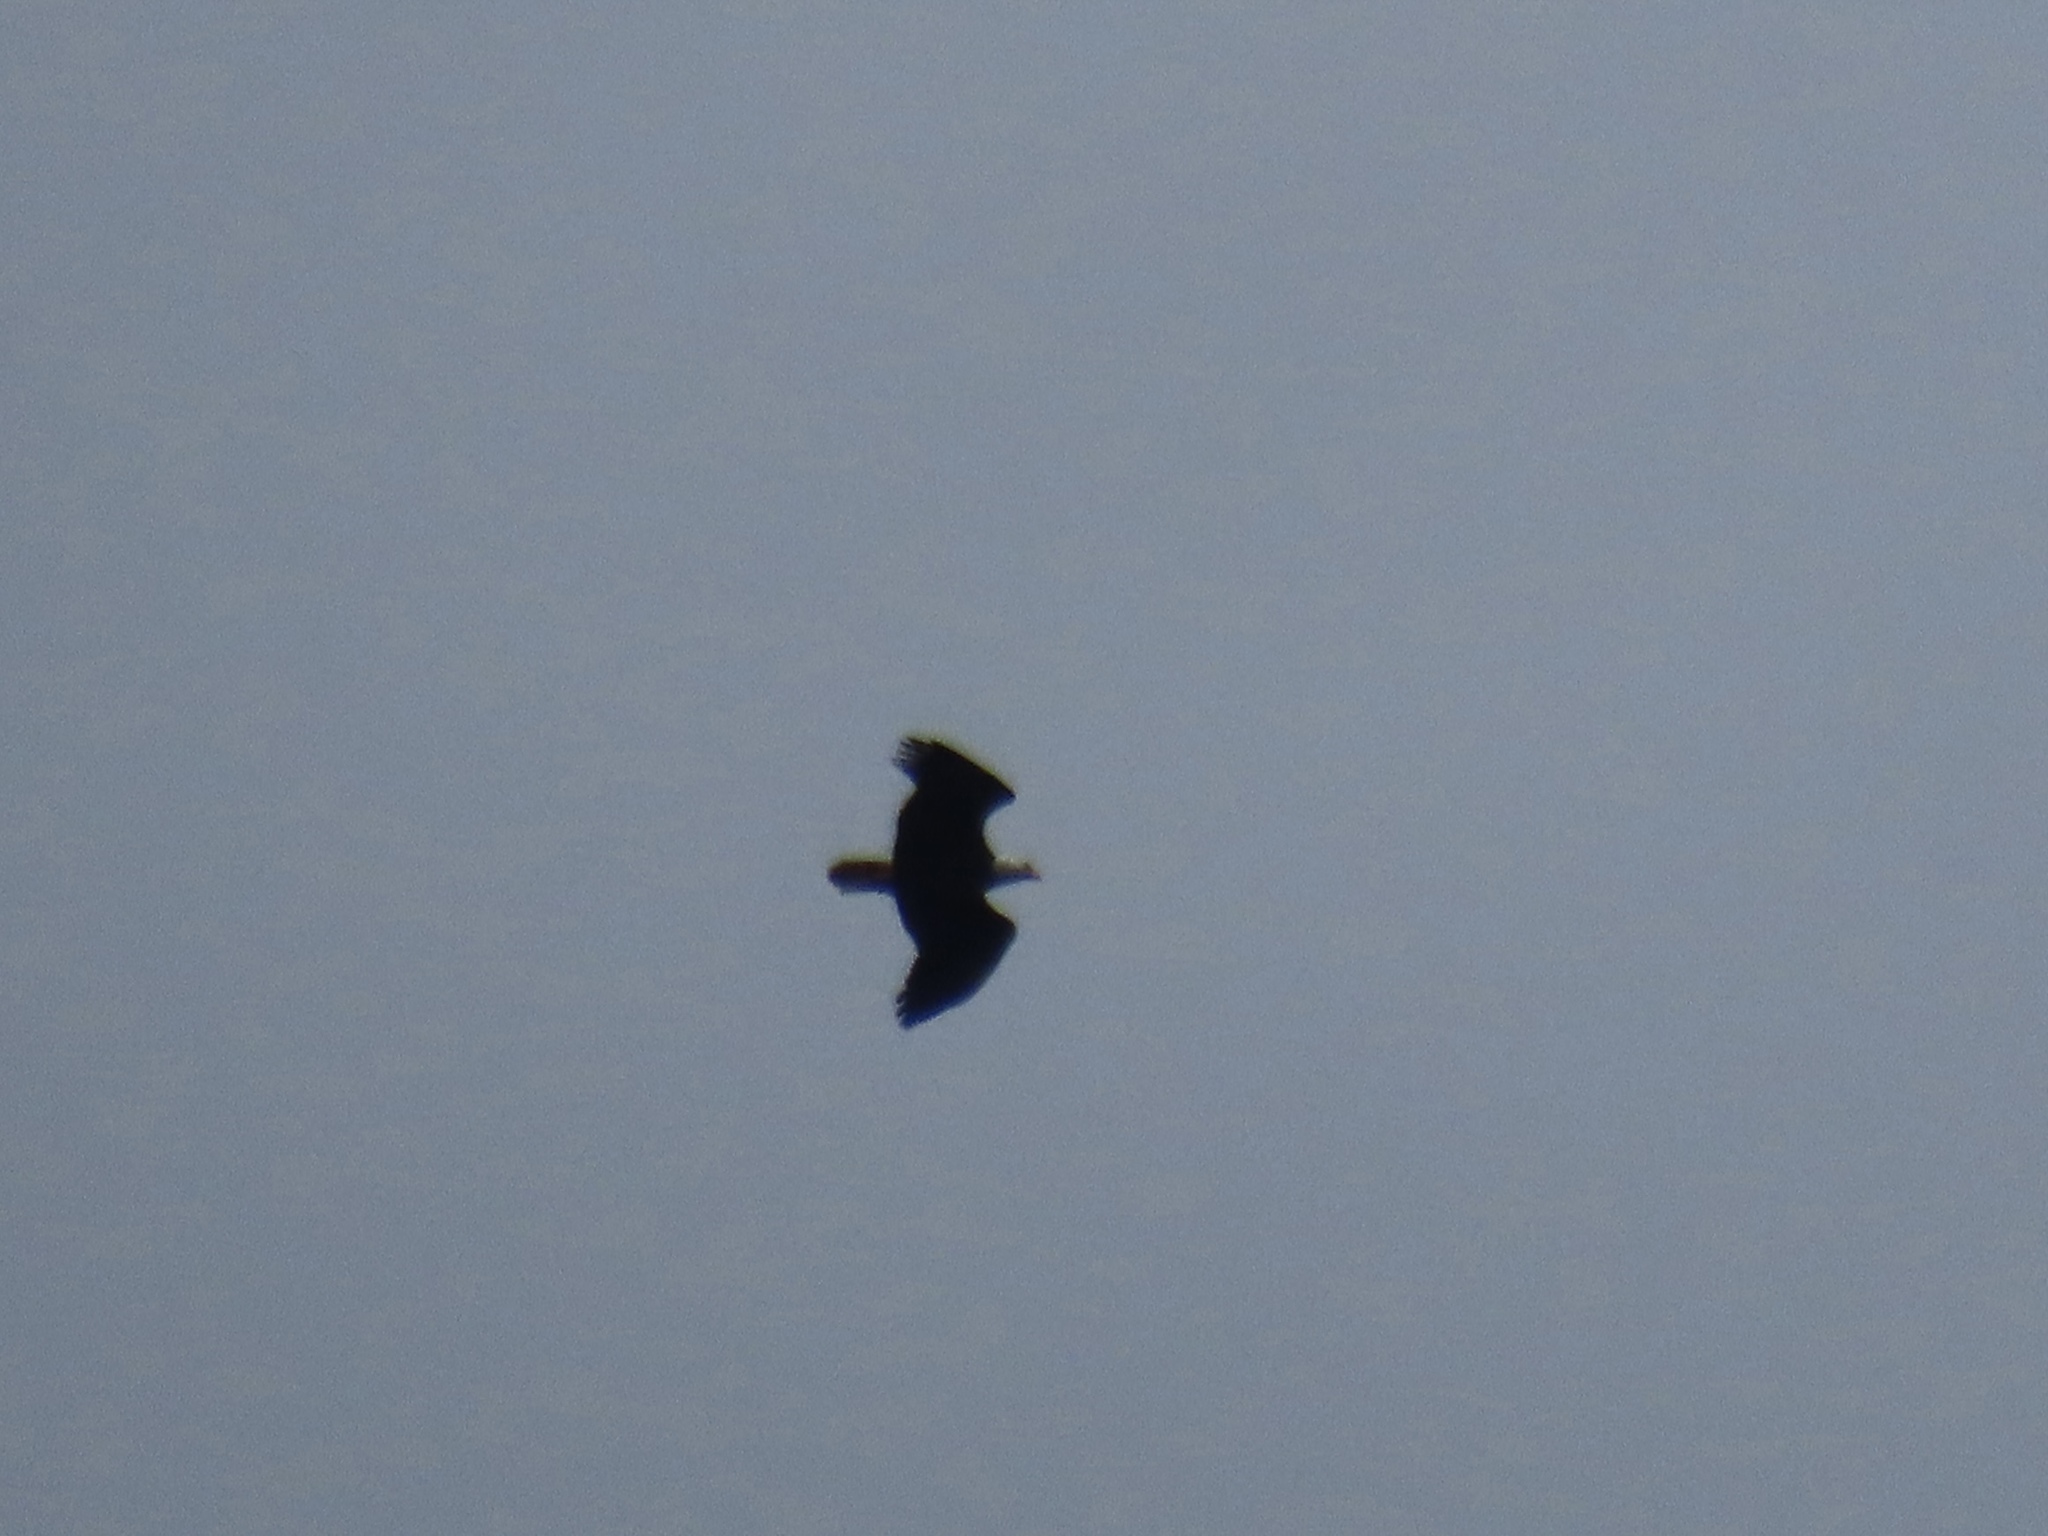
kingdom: Animalia
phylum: Chordata
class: Aves
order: Accipitriformes
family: Accipitridae
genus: Haliaeetus
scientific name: Haliaeetus leucocephalus
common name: Bald eagle
